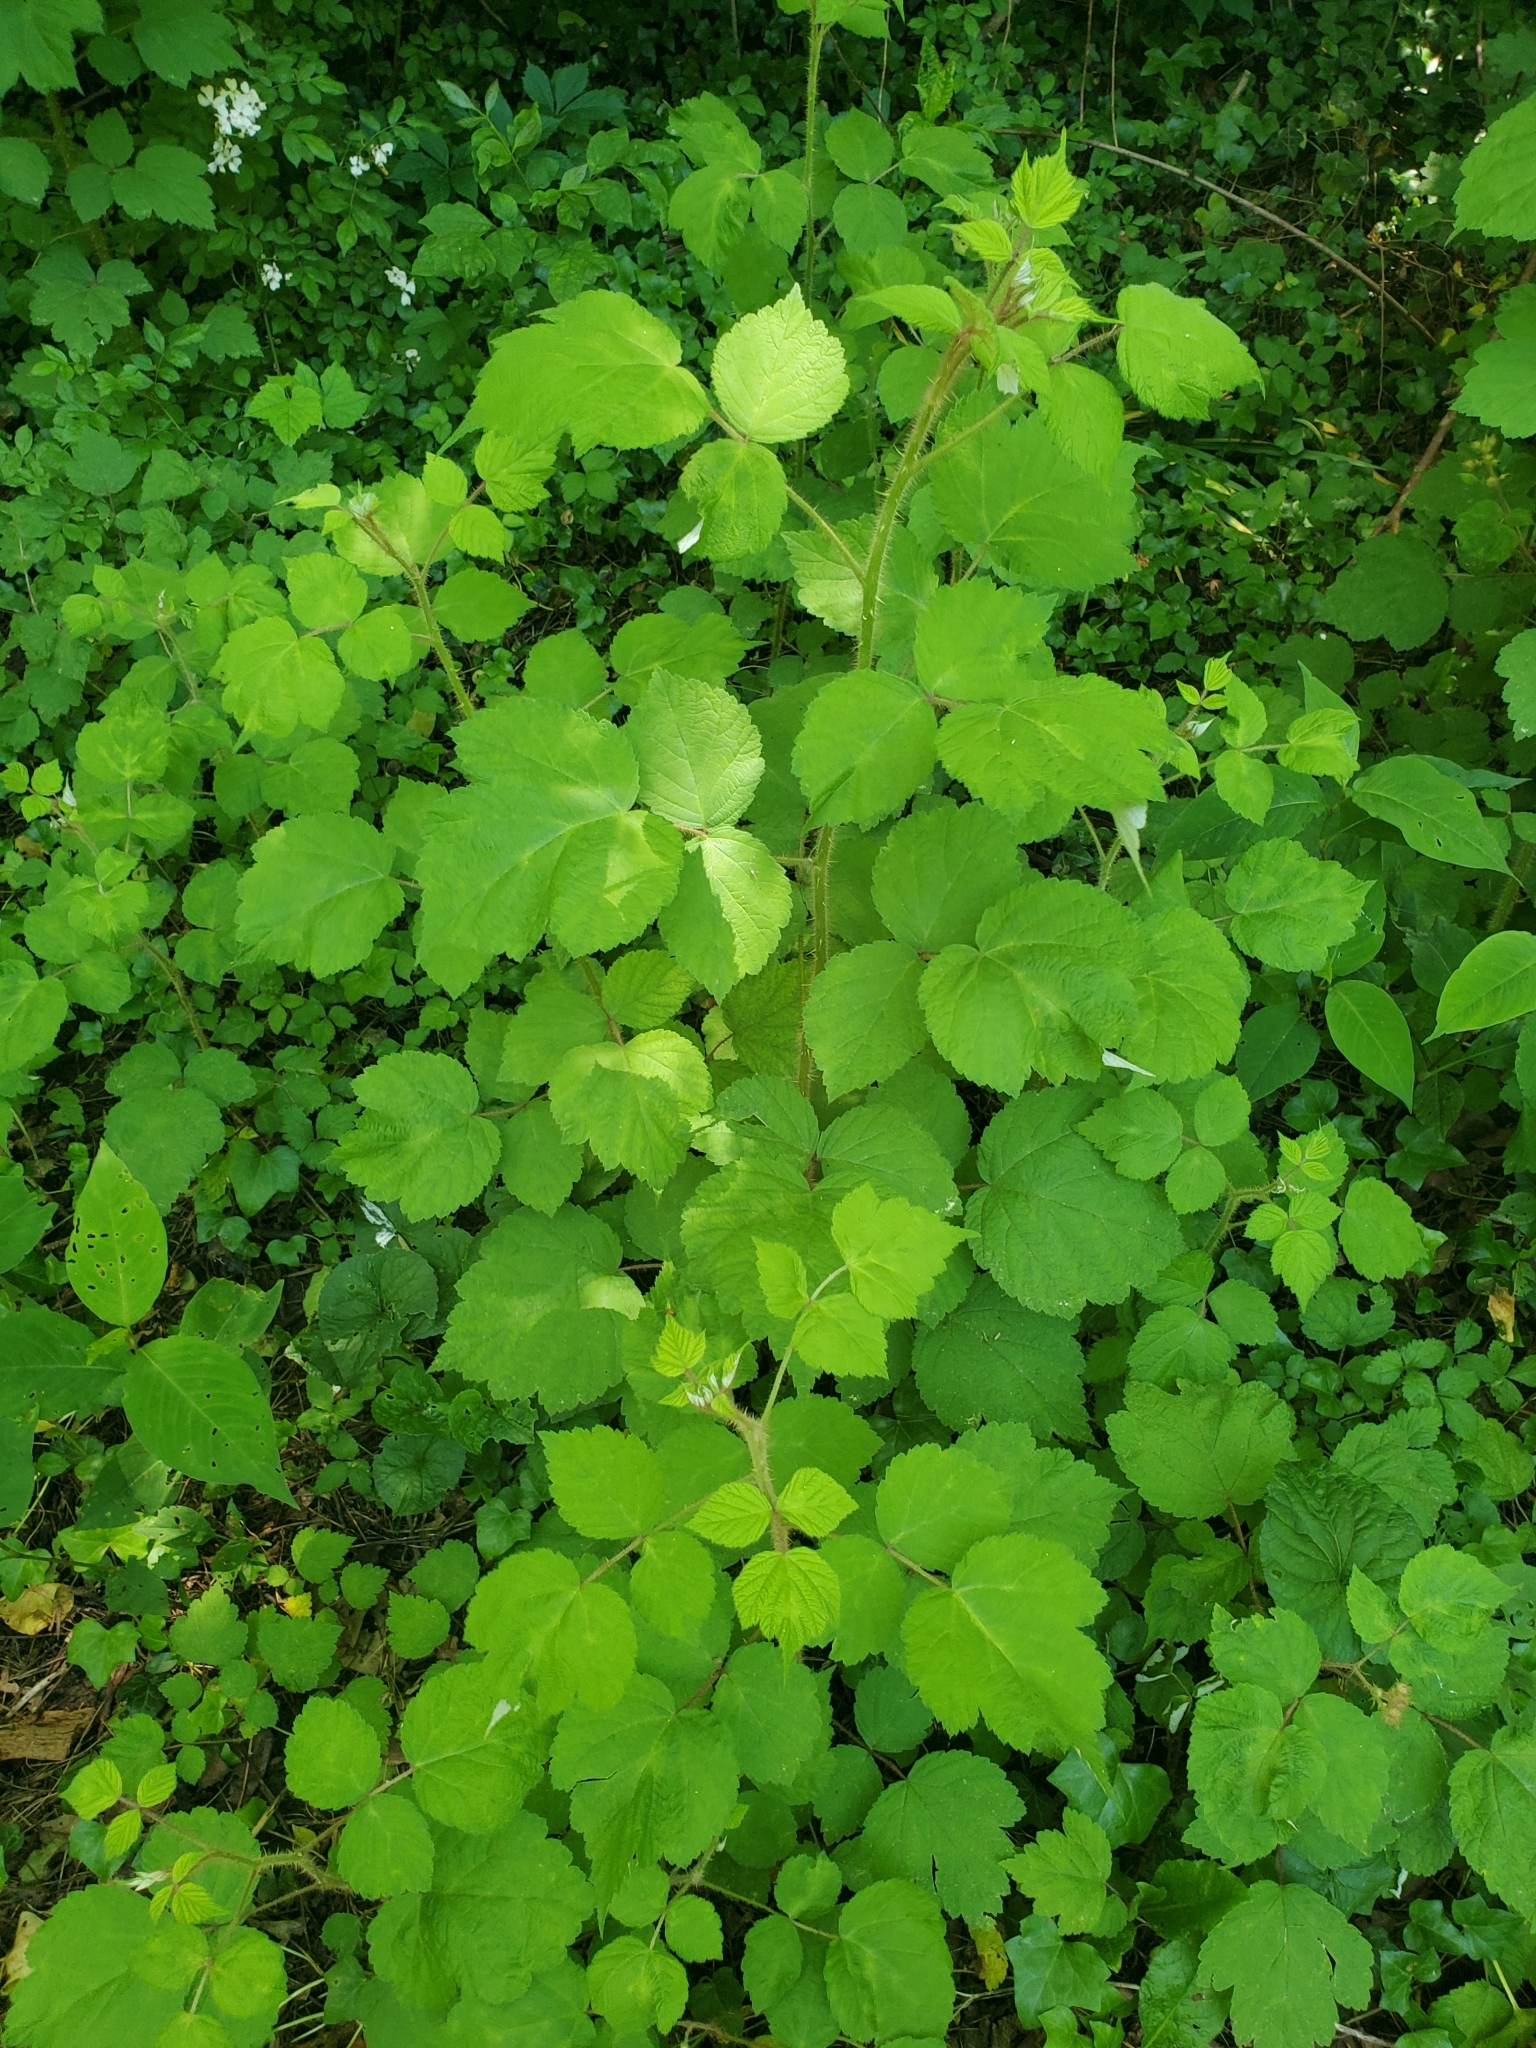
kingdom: Plantae
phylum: Tracheophyta
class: Magnoliopsida
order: Rosales
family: Rosaceae
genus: Rubus
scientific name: Rubus phoenicolasius
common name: Japanese wineberry
